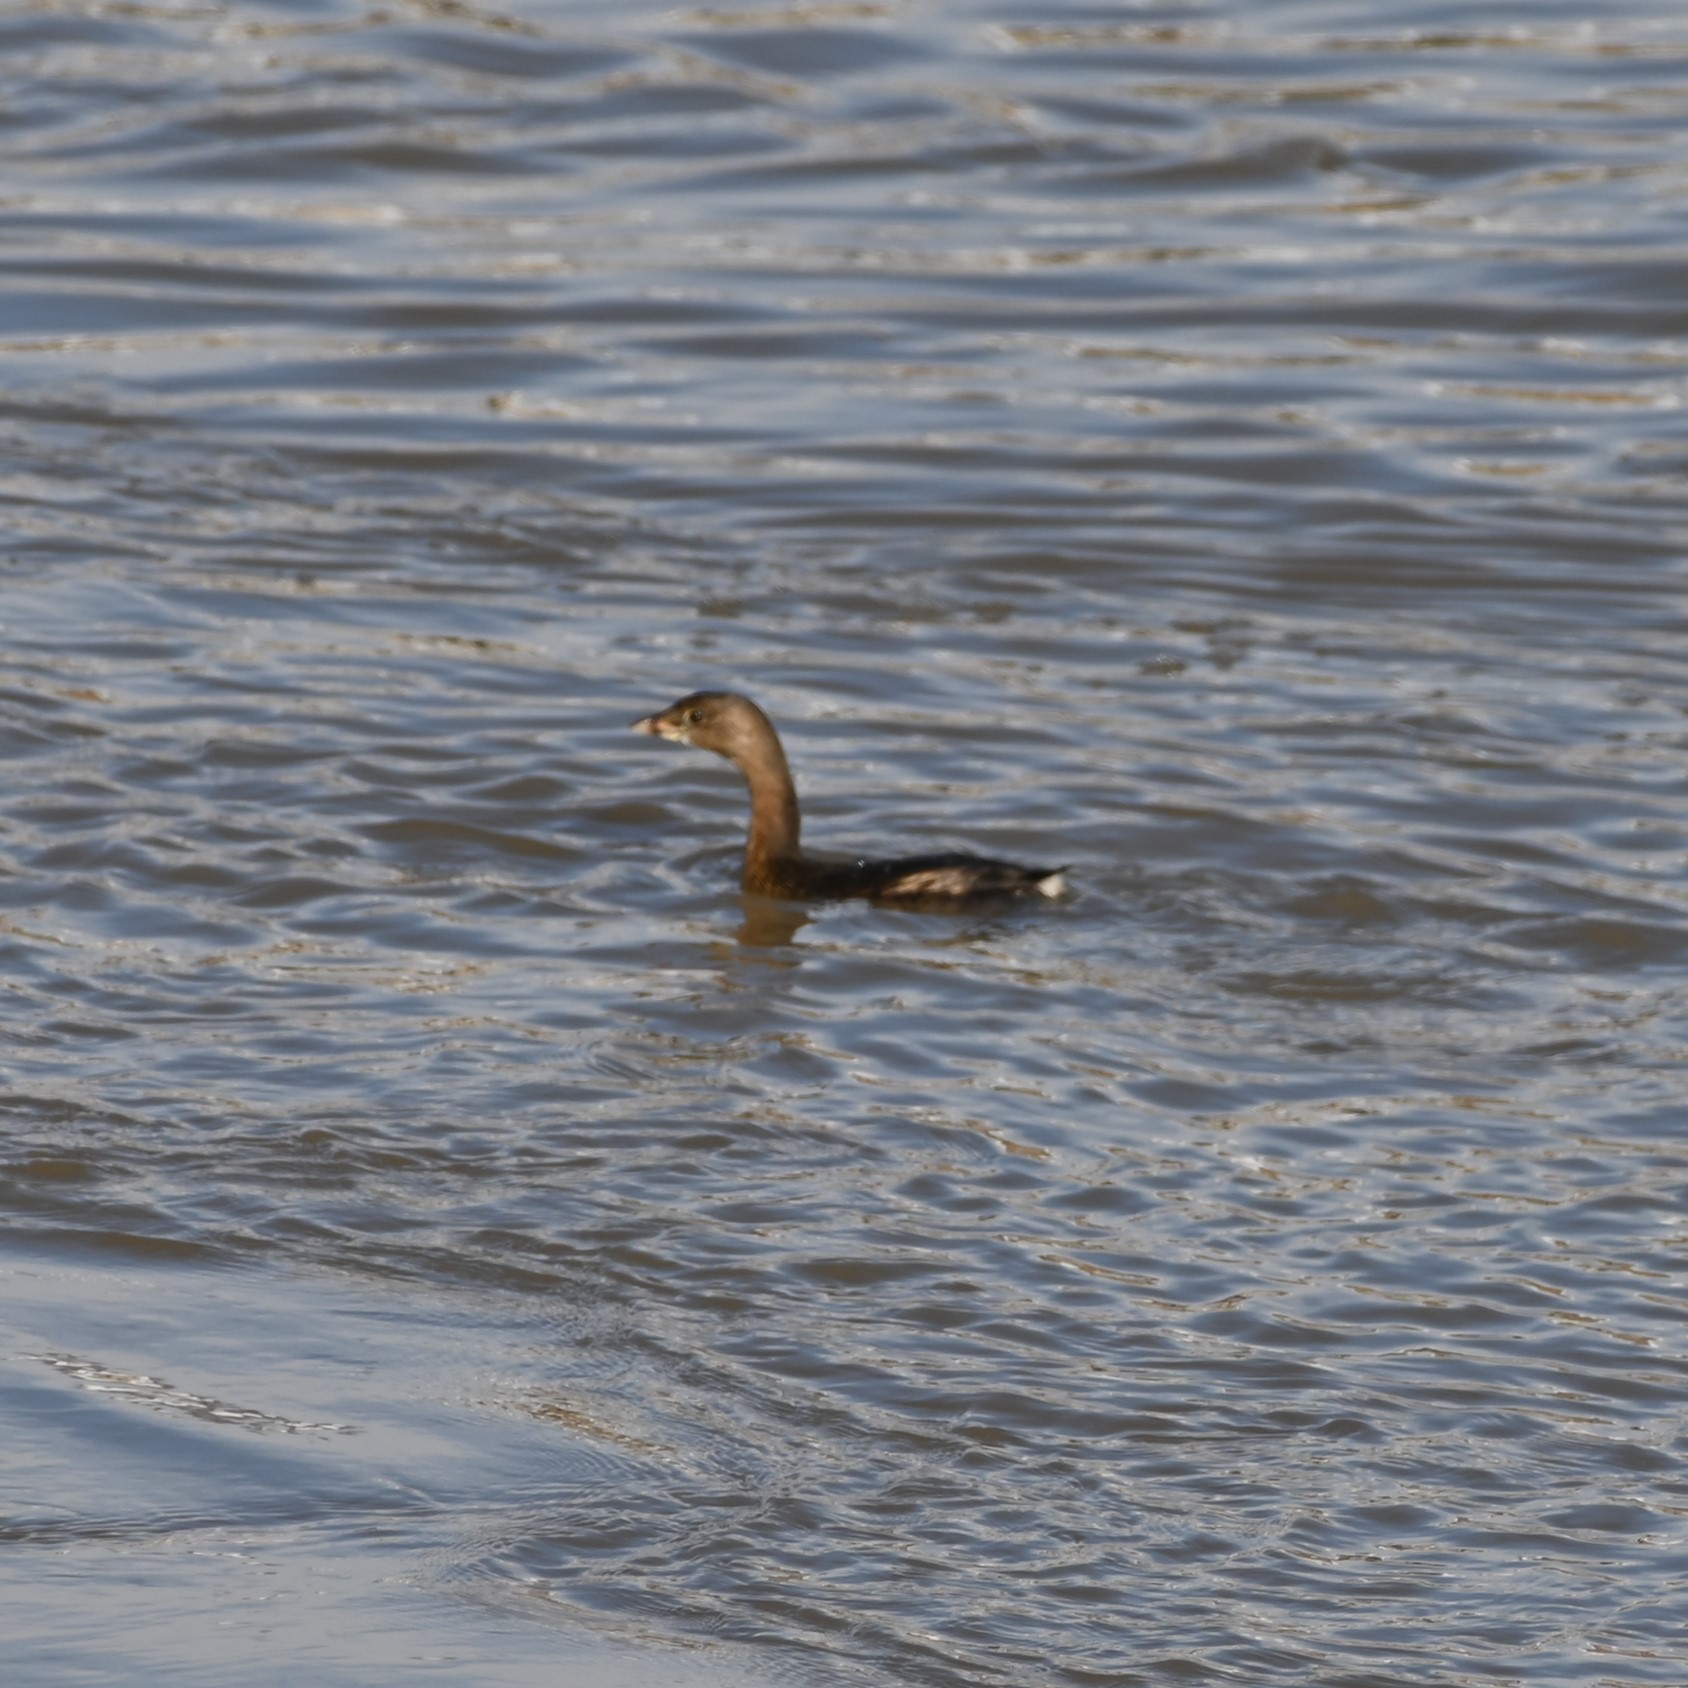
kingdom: Animalia
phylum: Chordata
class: Aves
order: Podicipediformes
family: Podicipedidae
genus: Podilymbus
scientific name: Podilymbus podiceps
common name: Pied-billed grebe
